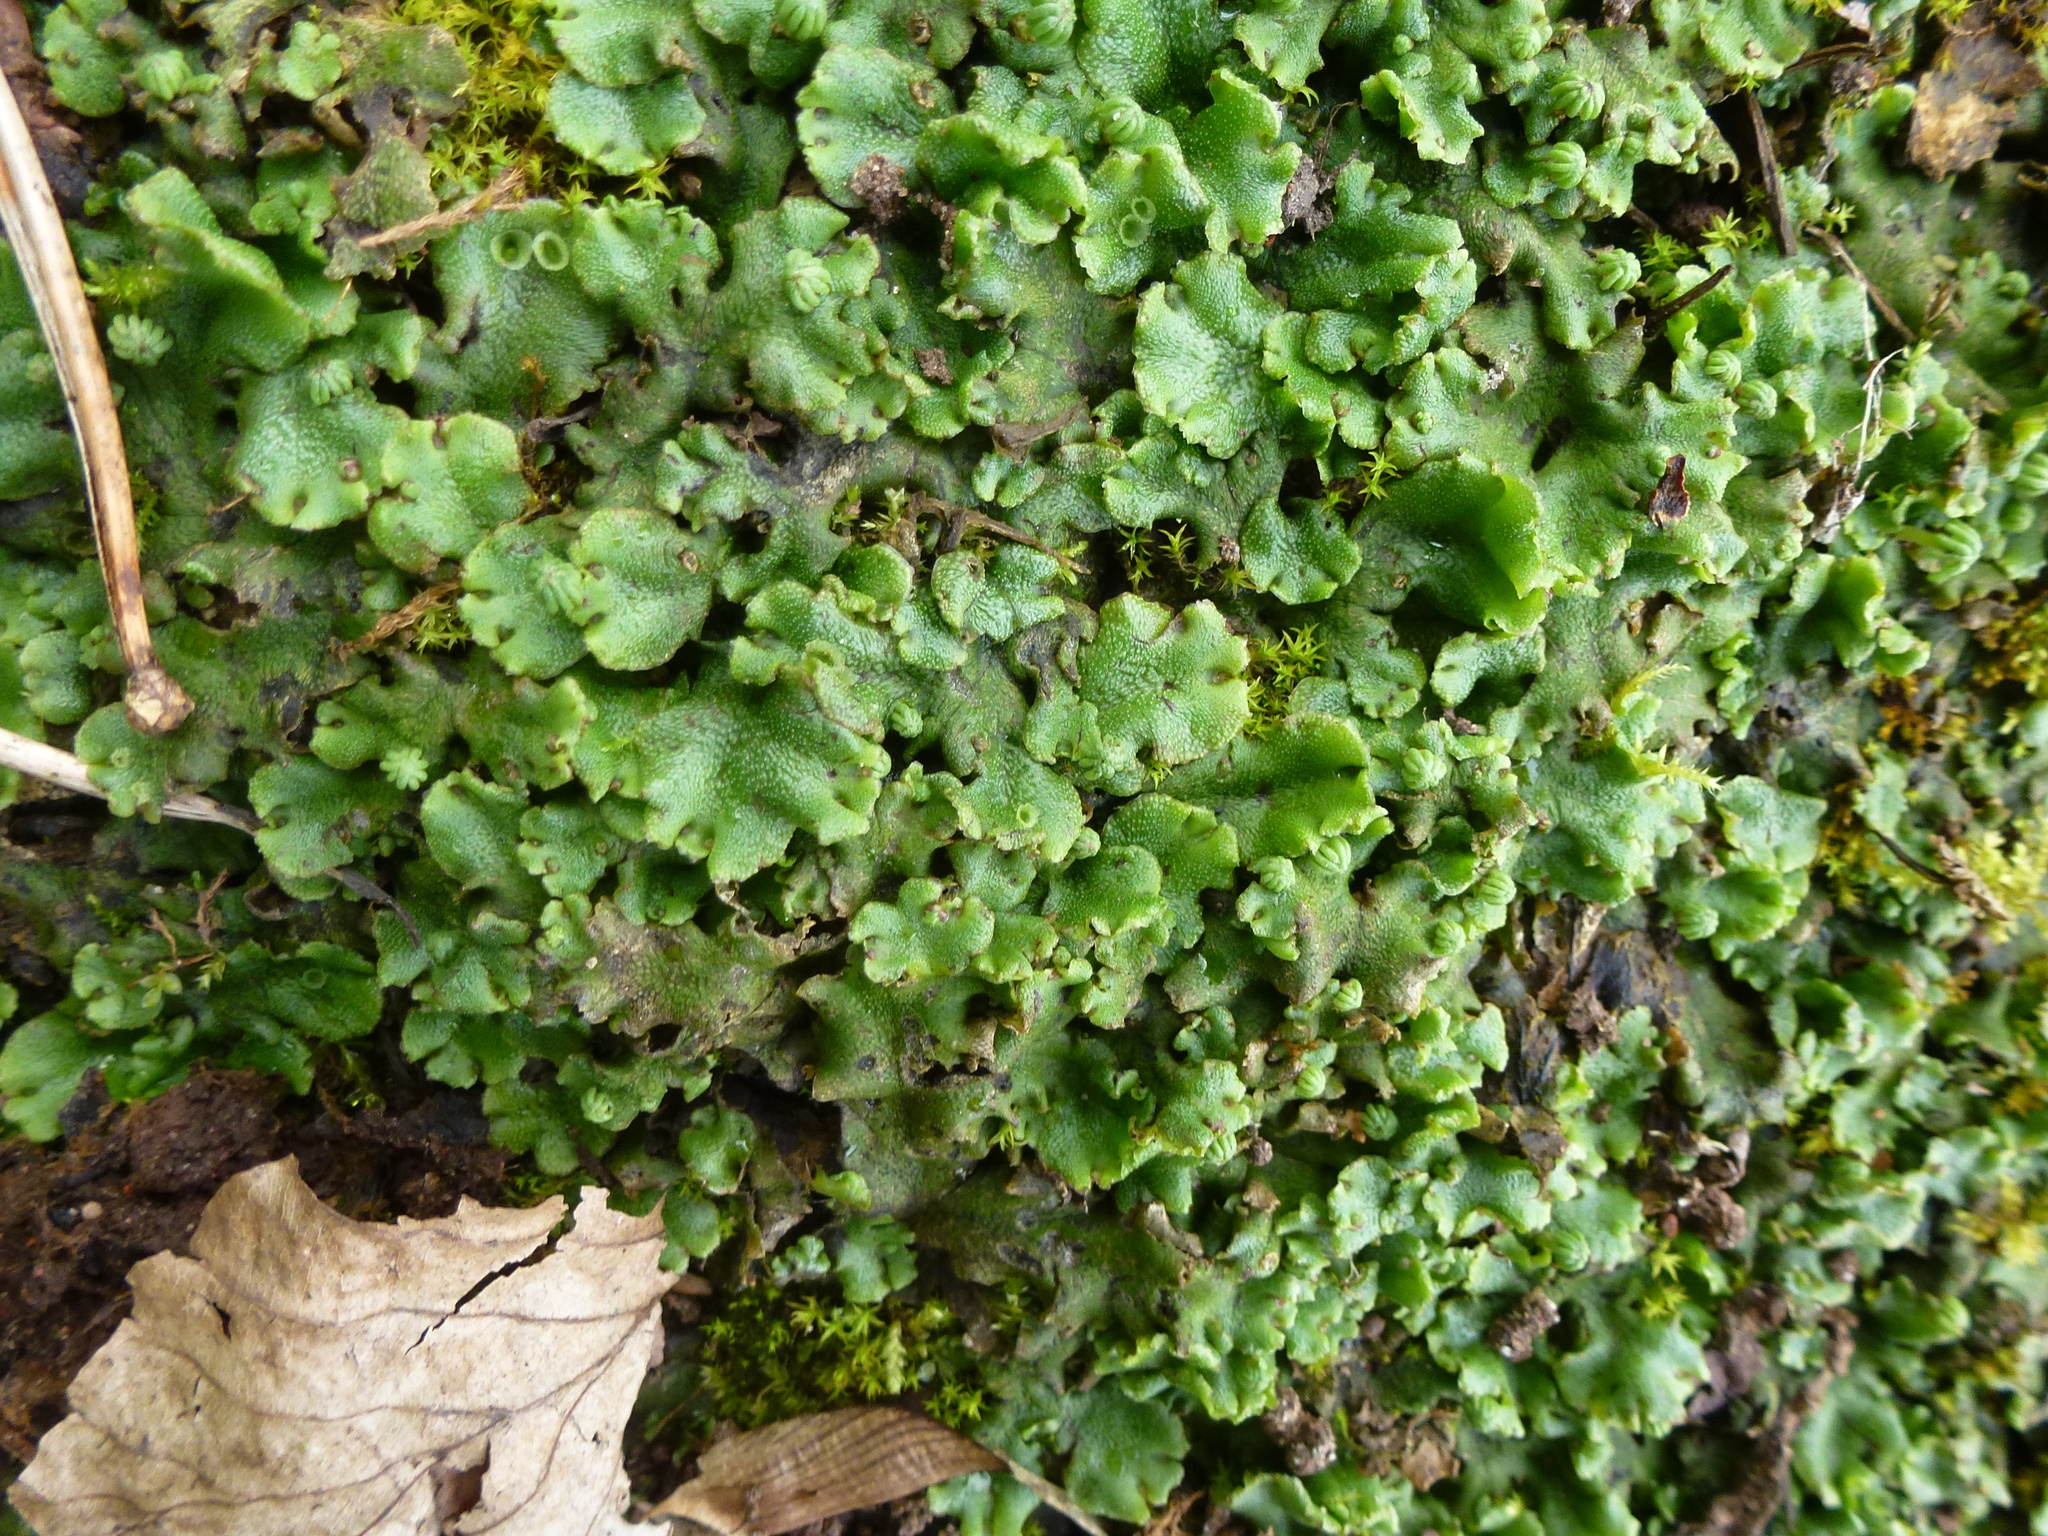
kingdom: Plantae
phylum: Marchantiophyta
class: Marchantiopsida
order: Marchantiales
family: Marchantiaceae
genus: Marchantia
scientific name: Marchantia polymorpha
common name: Common liverwort
